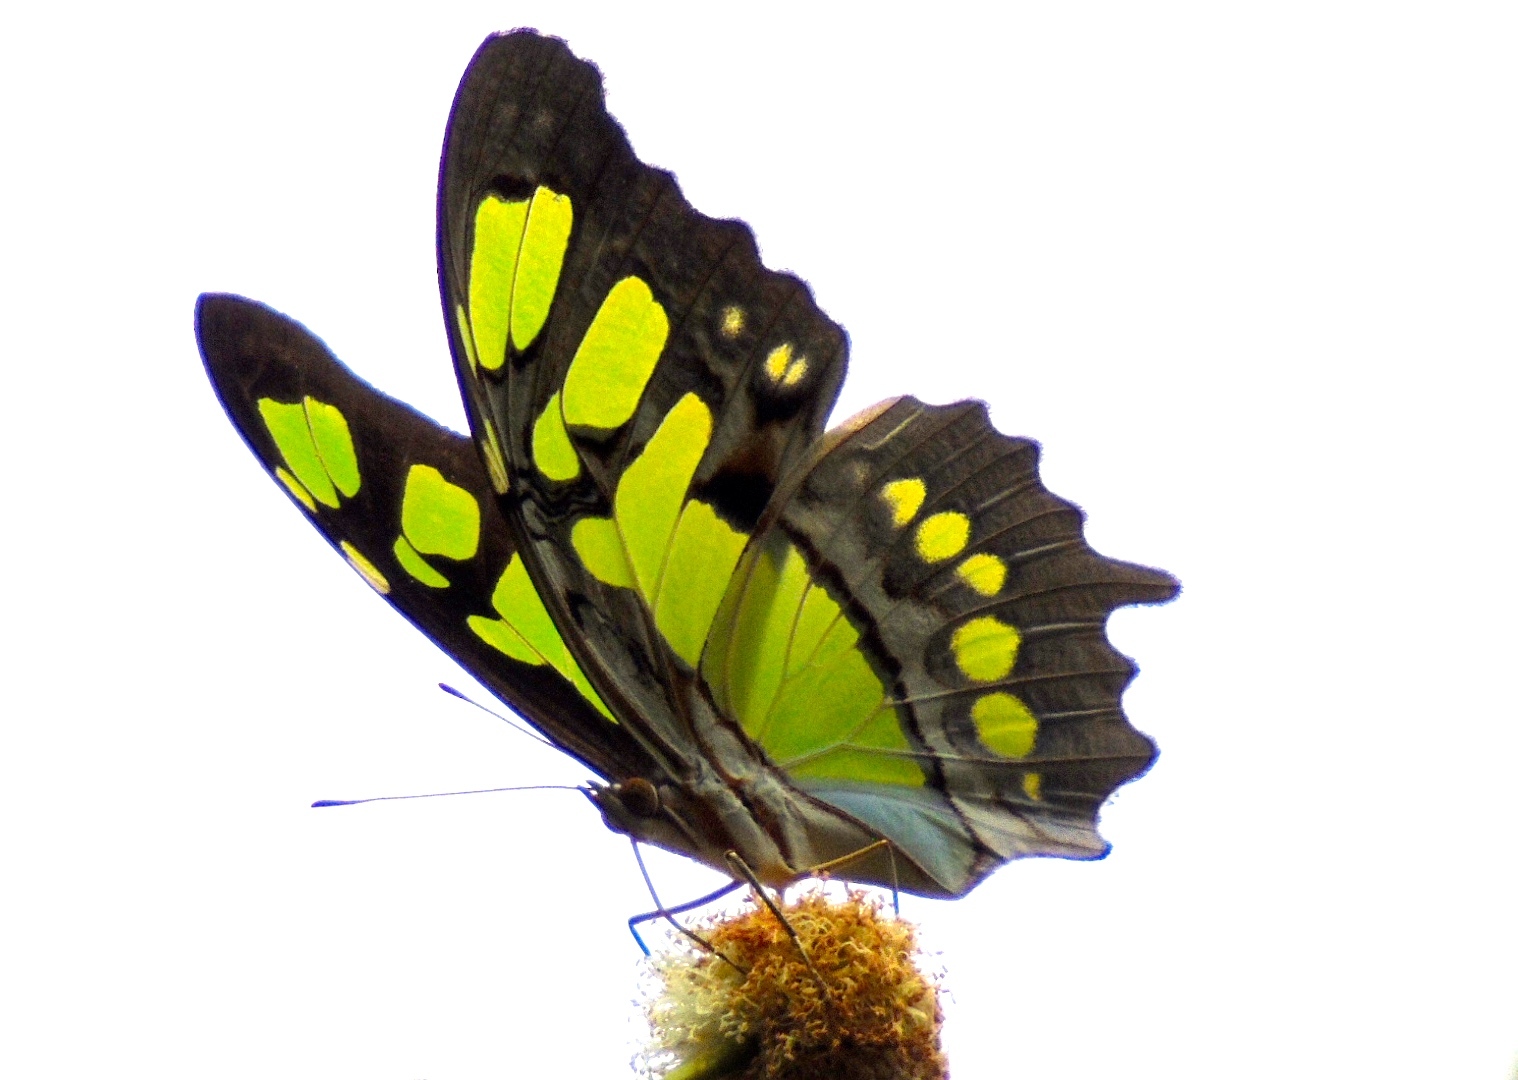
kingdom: Animalia
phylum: Arthropoda
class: Insecta
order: Lepidoptera
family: Nymphalidae
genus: Siproeta
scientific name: Siproeta stelenes
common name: Malachite
